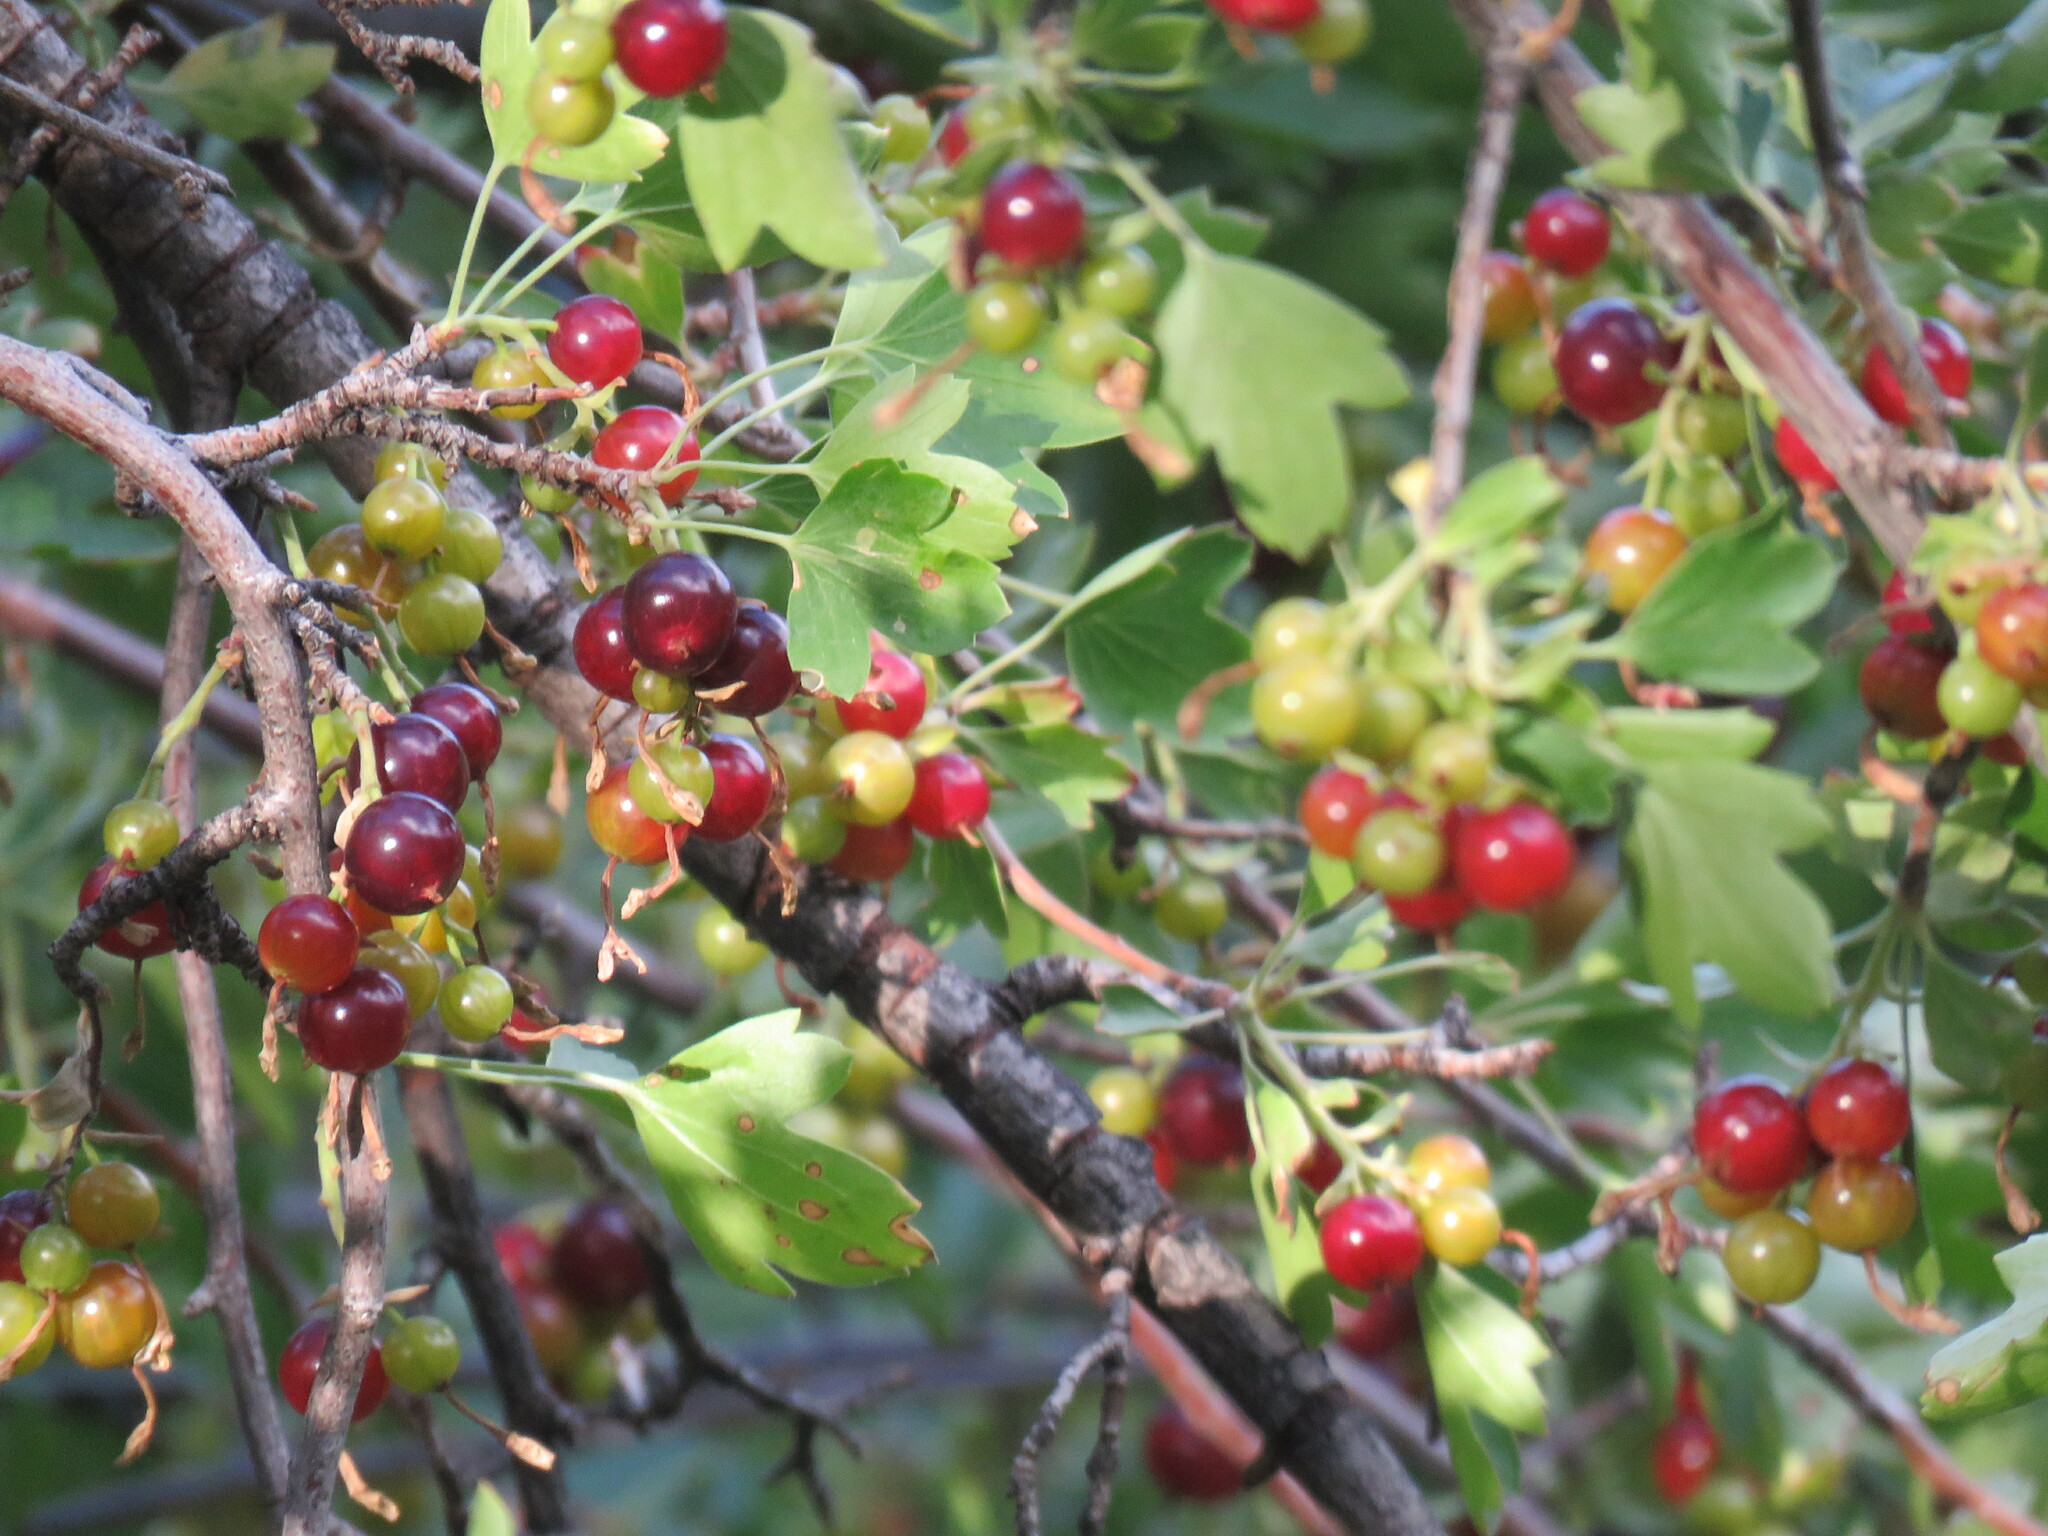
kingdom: Plantae
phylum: Tracheophyta
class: Magnoliopsida
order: Saxifragales
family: Grossulariaceae
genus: Ribes
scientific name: Ribes aureum
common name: Golden currant
